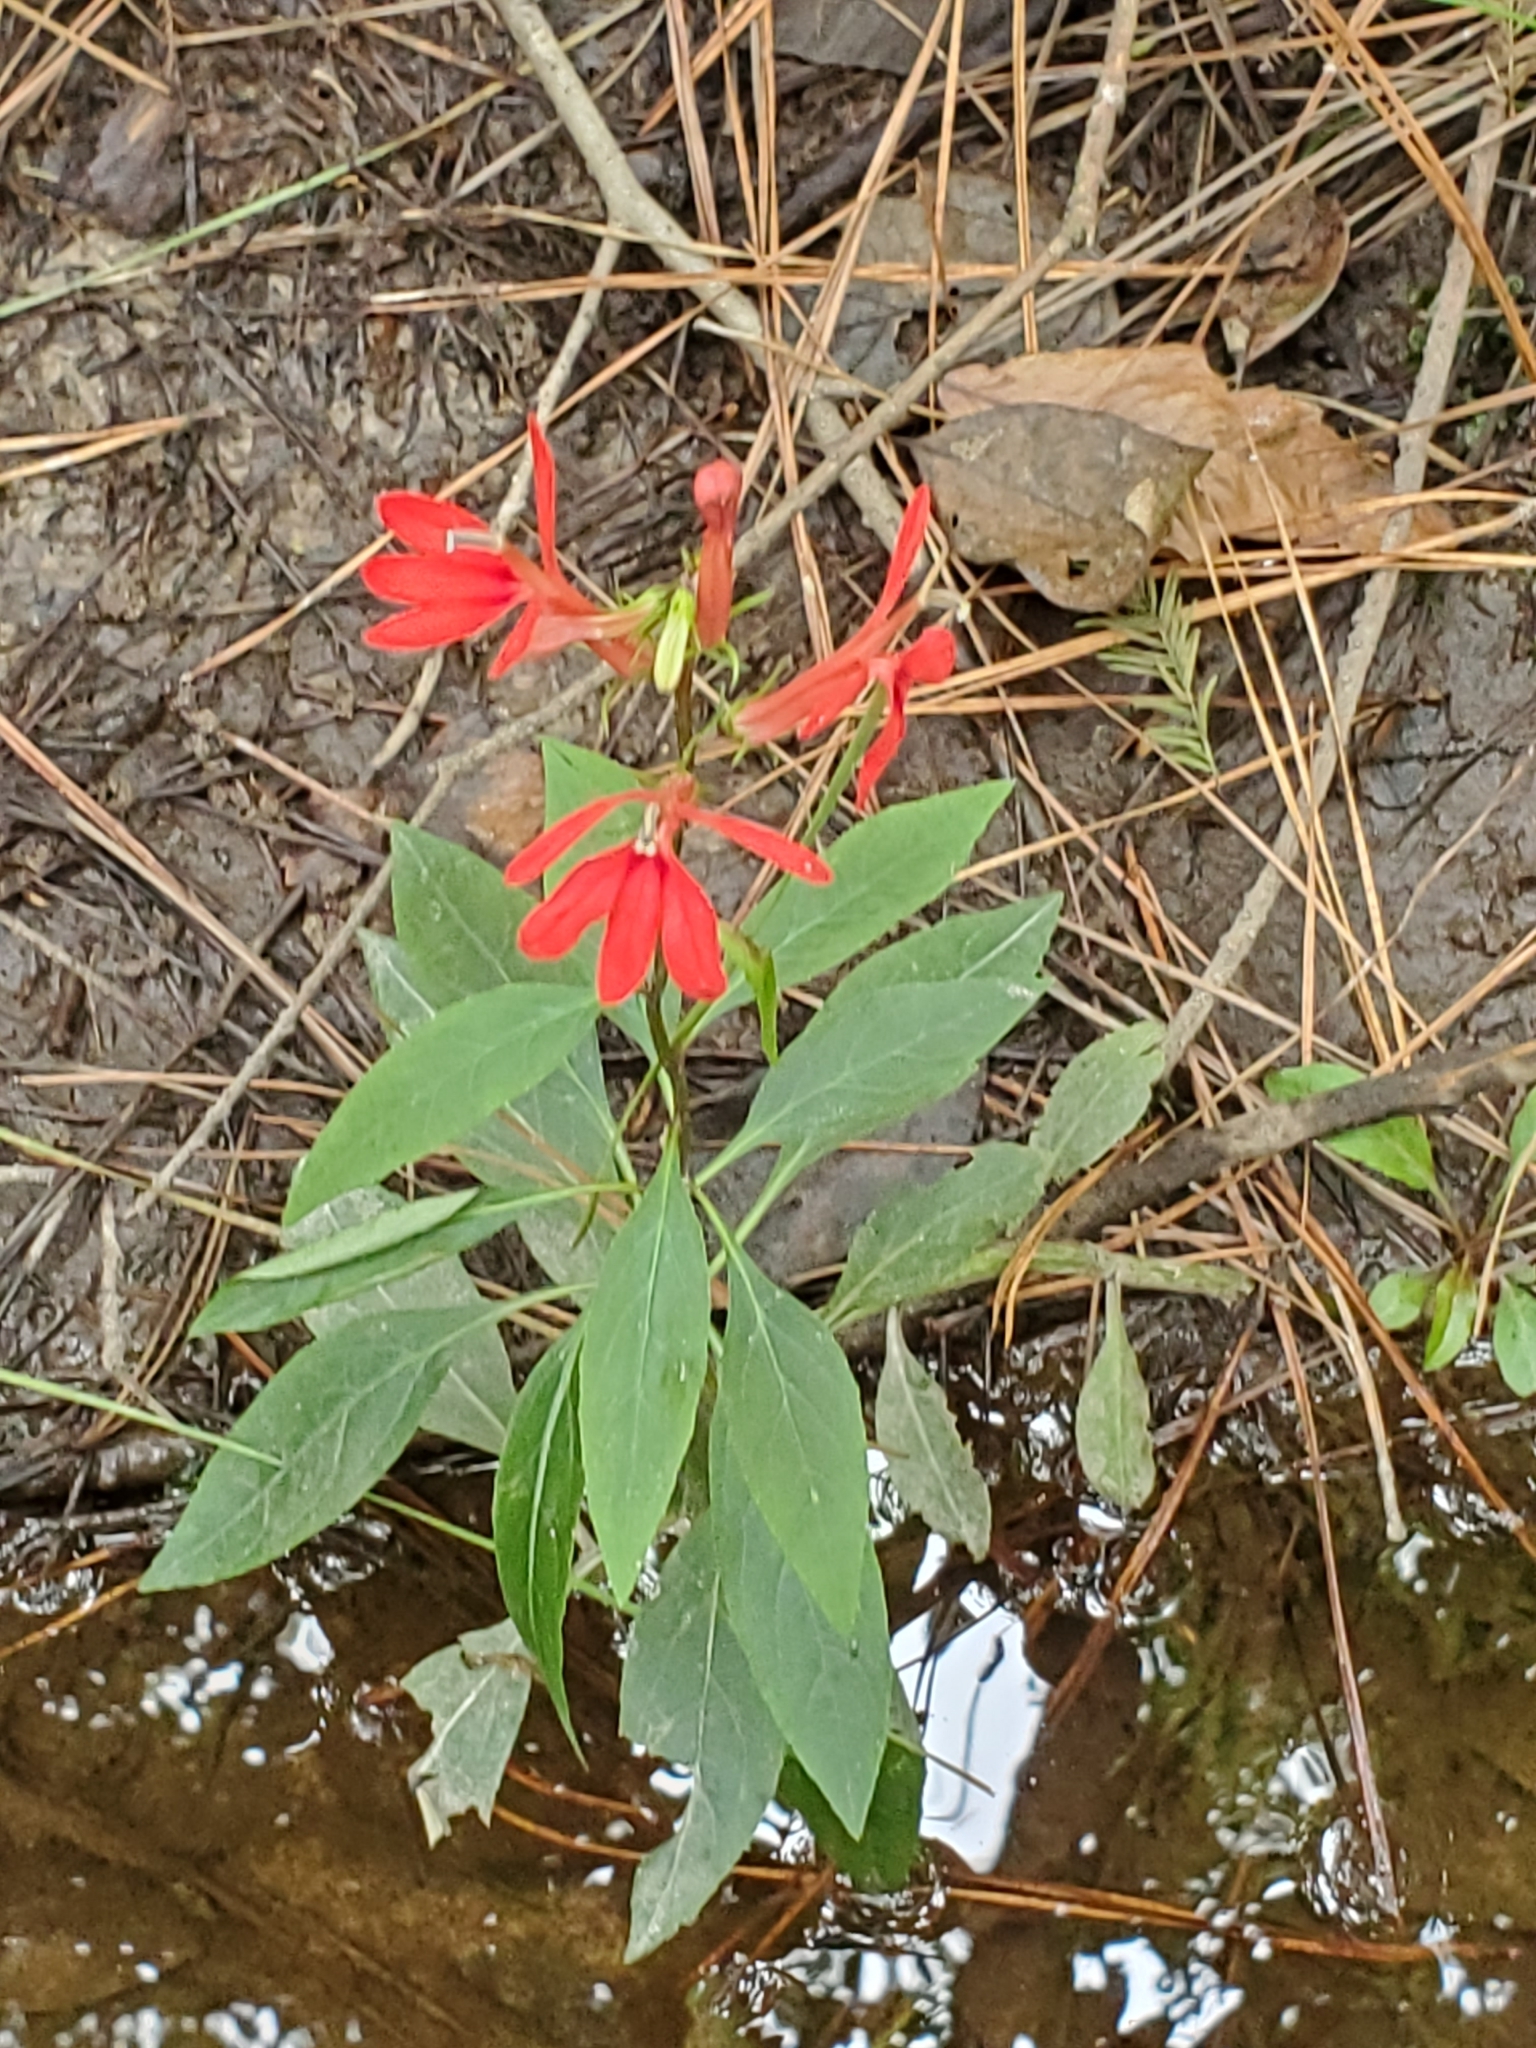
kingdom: Plantae
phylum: Tracheophyta
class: Magnoliopsida
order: Asterales
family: Campanulaceae
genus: Lobelia
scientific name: Lobelia cardinalis
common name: Cardinal flower
